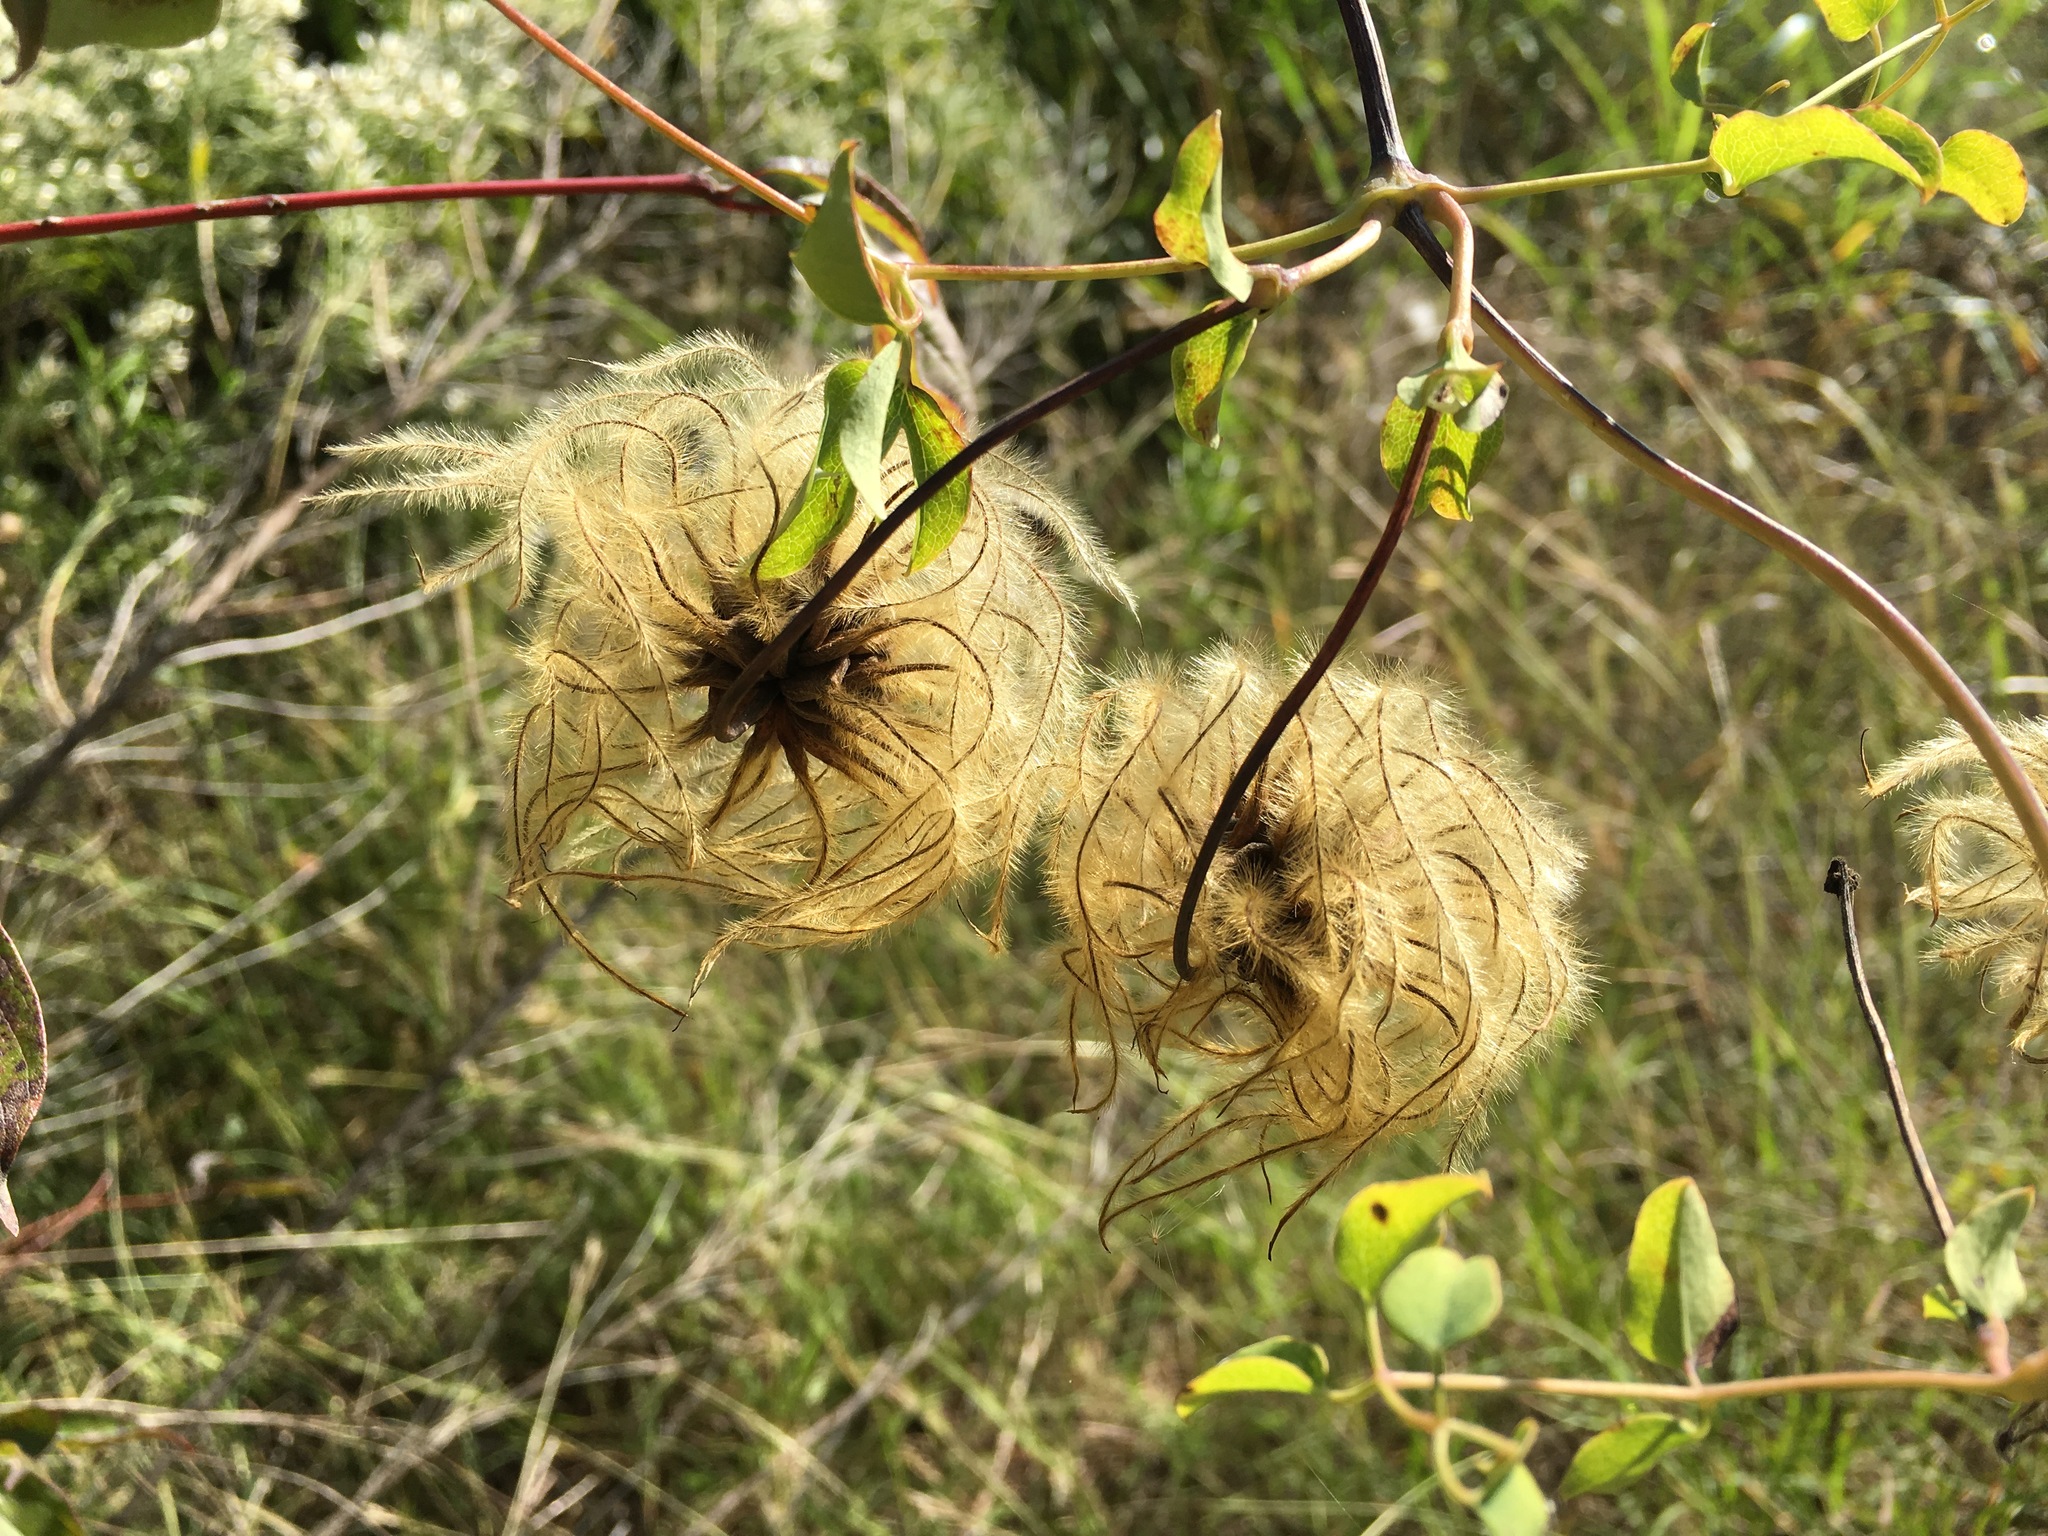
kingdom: Plantae
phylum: Tracheophyta
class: Magnoliopsida
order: Ranunculales
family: Ranunculaceae
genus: Clematis
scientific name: Clematis texensis
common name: Crimson clematis
